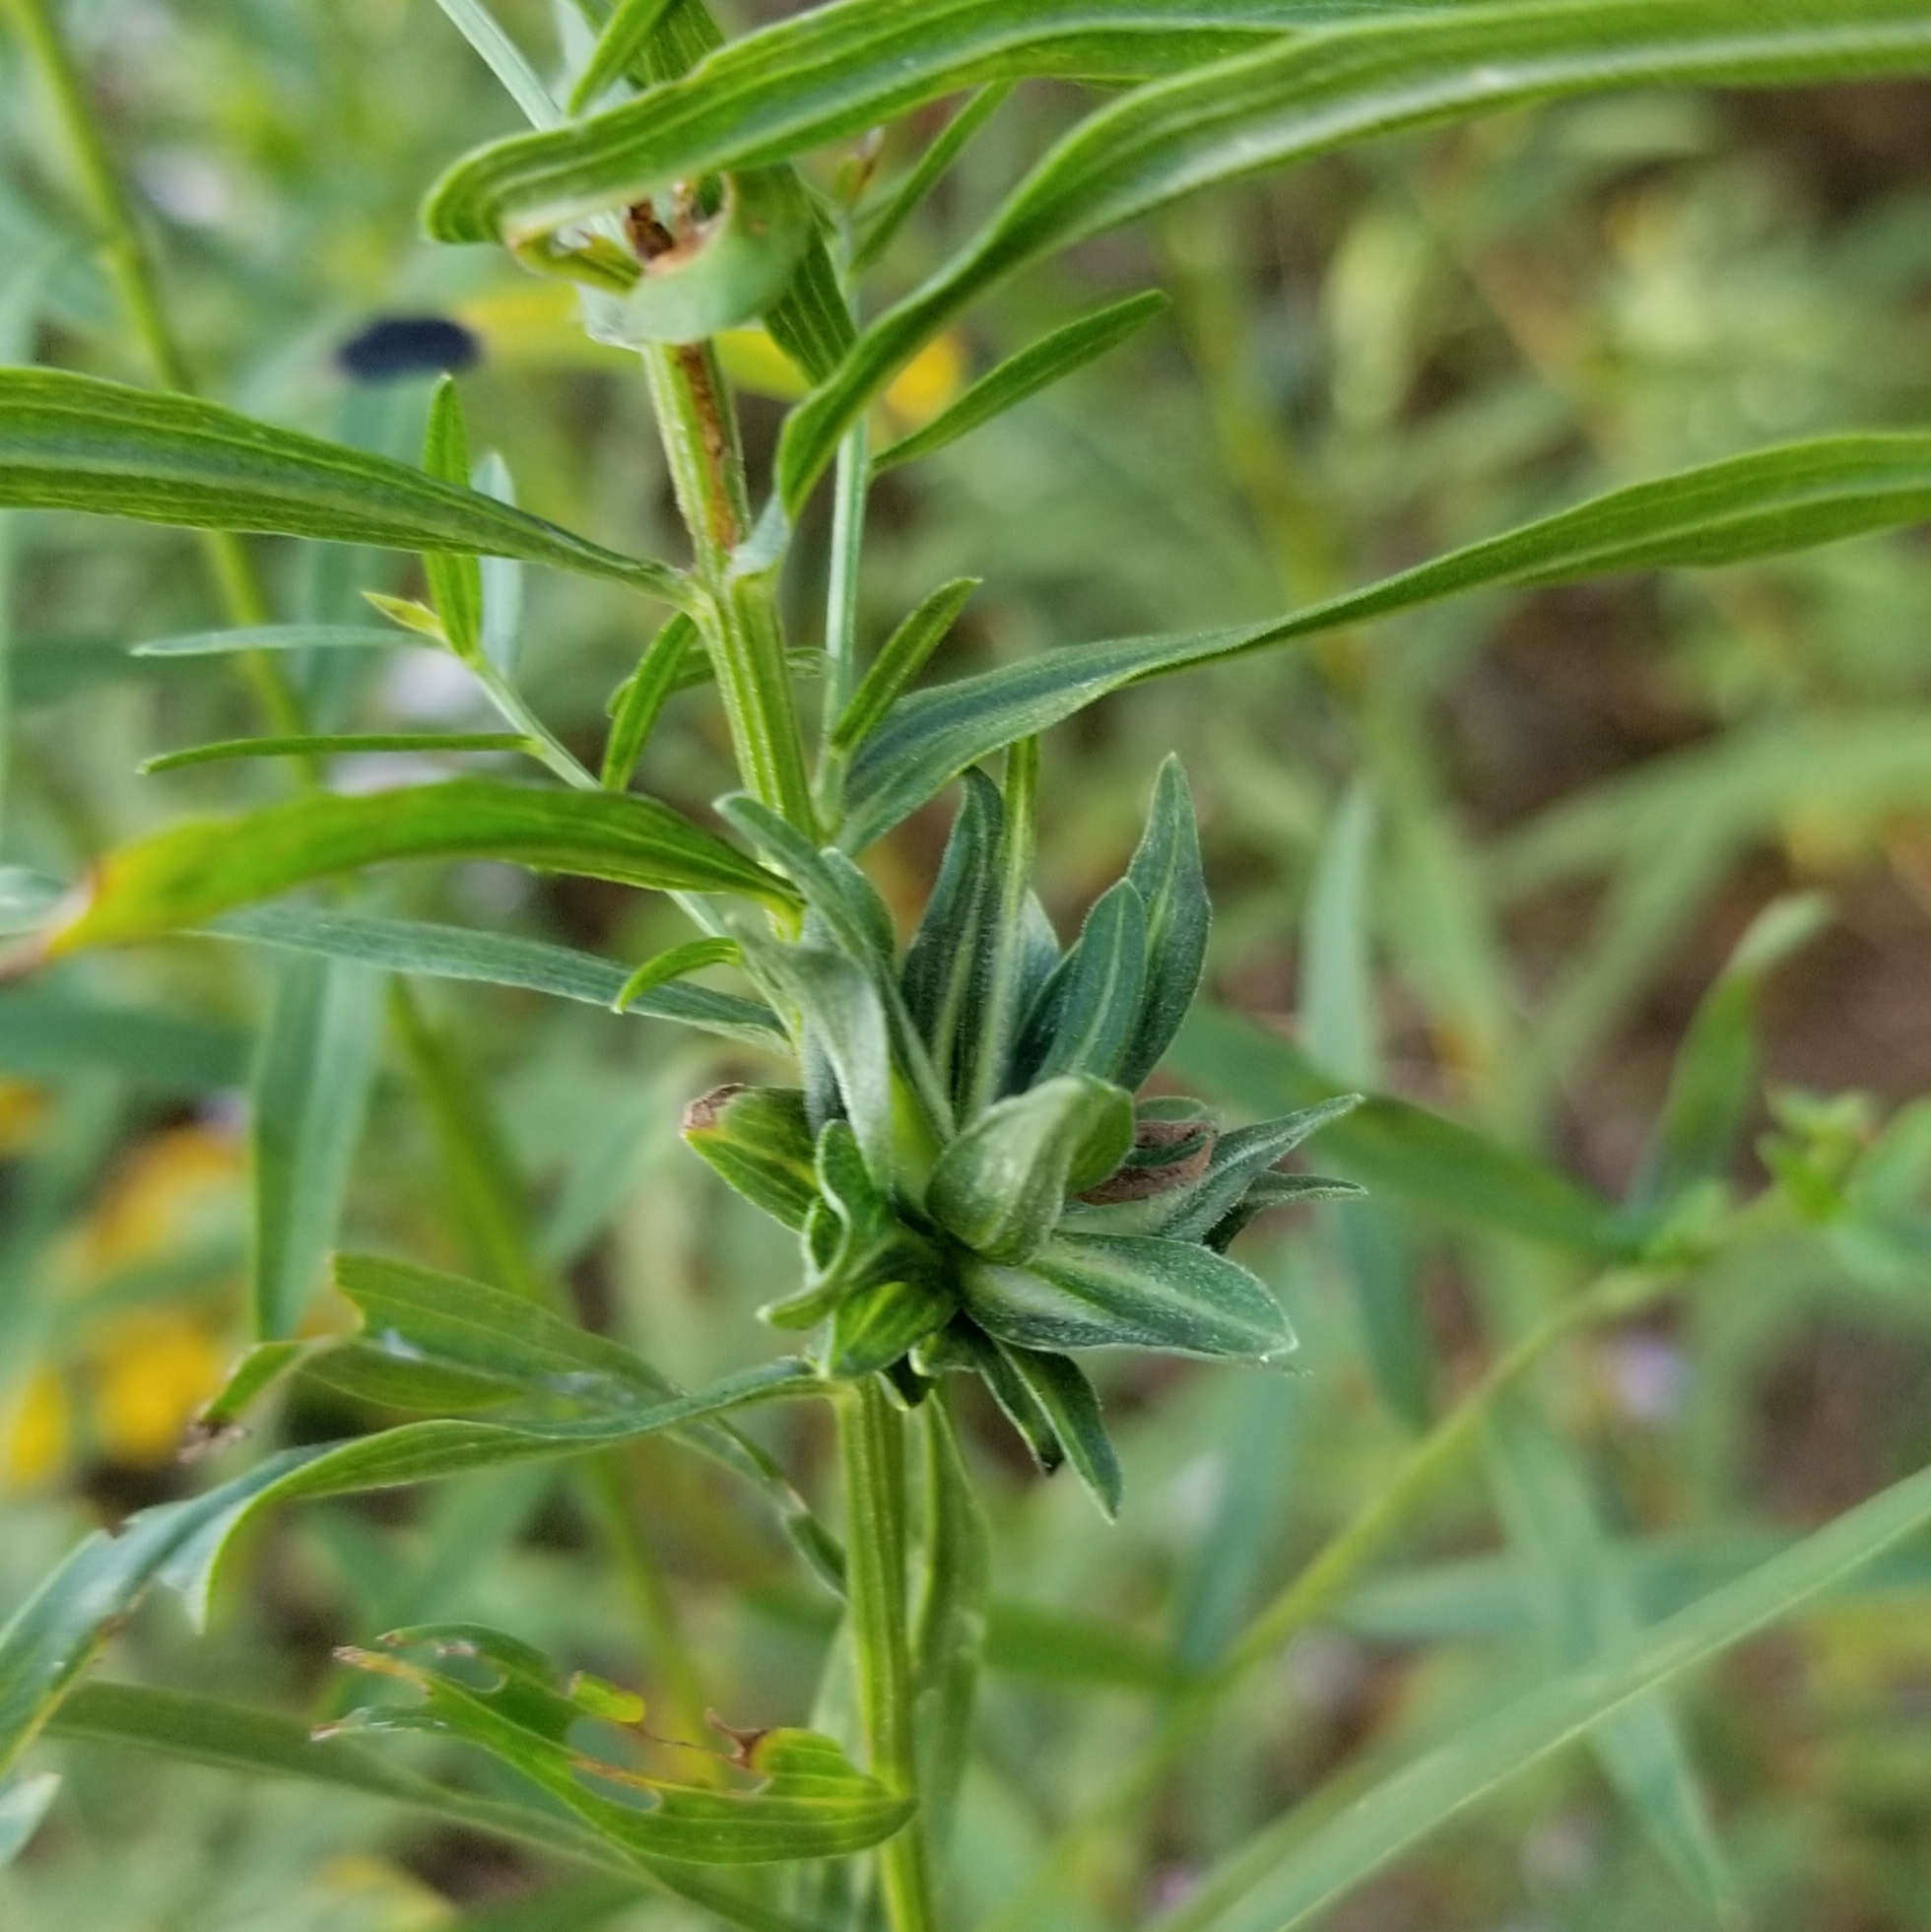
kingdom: Animalia
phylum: Arthropoda
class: Insecta
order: Diptera
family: Cecidomyiidae
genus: Asphondylia
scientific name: Asphondylia pseudorosa
